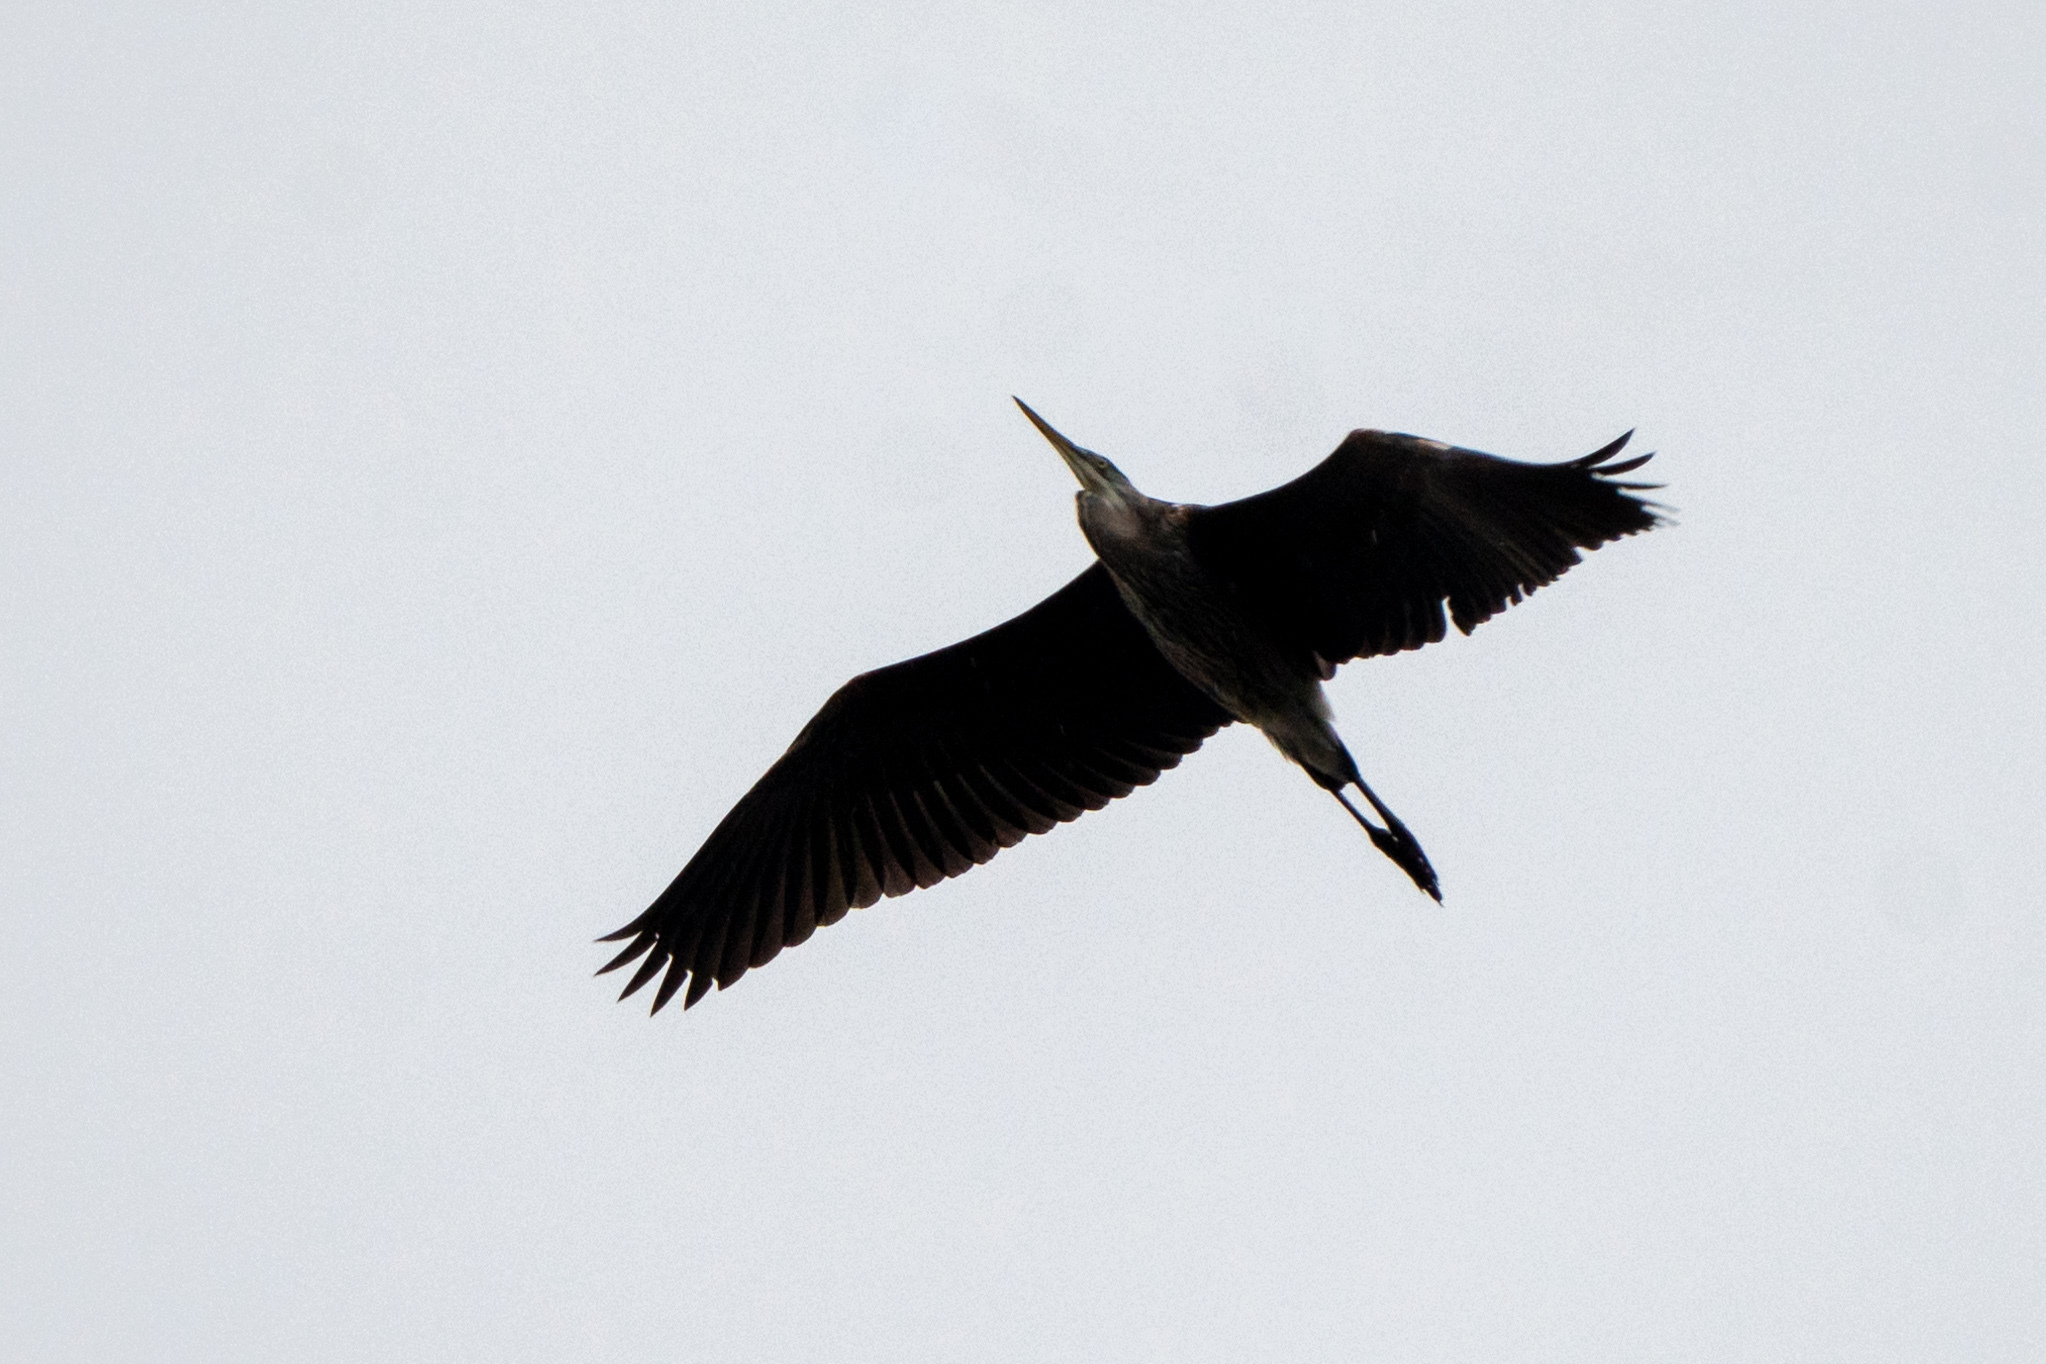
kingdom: Animalia
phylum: Chordata
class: Aves
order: Pelecaniformes
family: Ardeidae
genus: Ardea
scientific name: Ardea herodias
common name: Great blue heron
